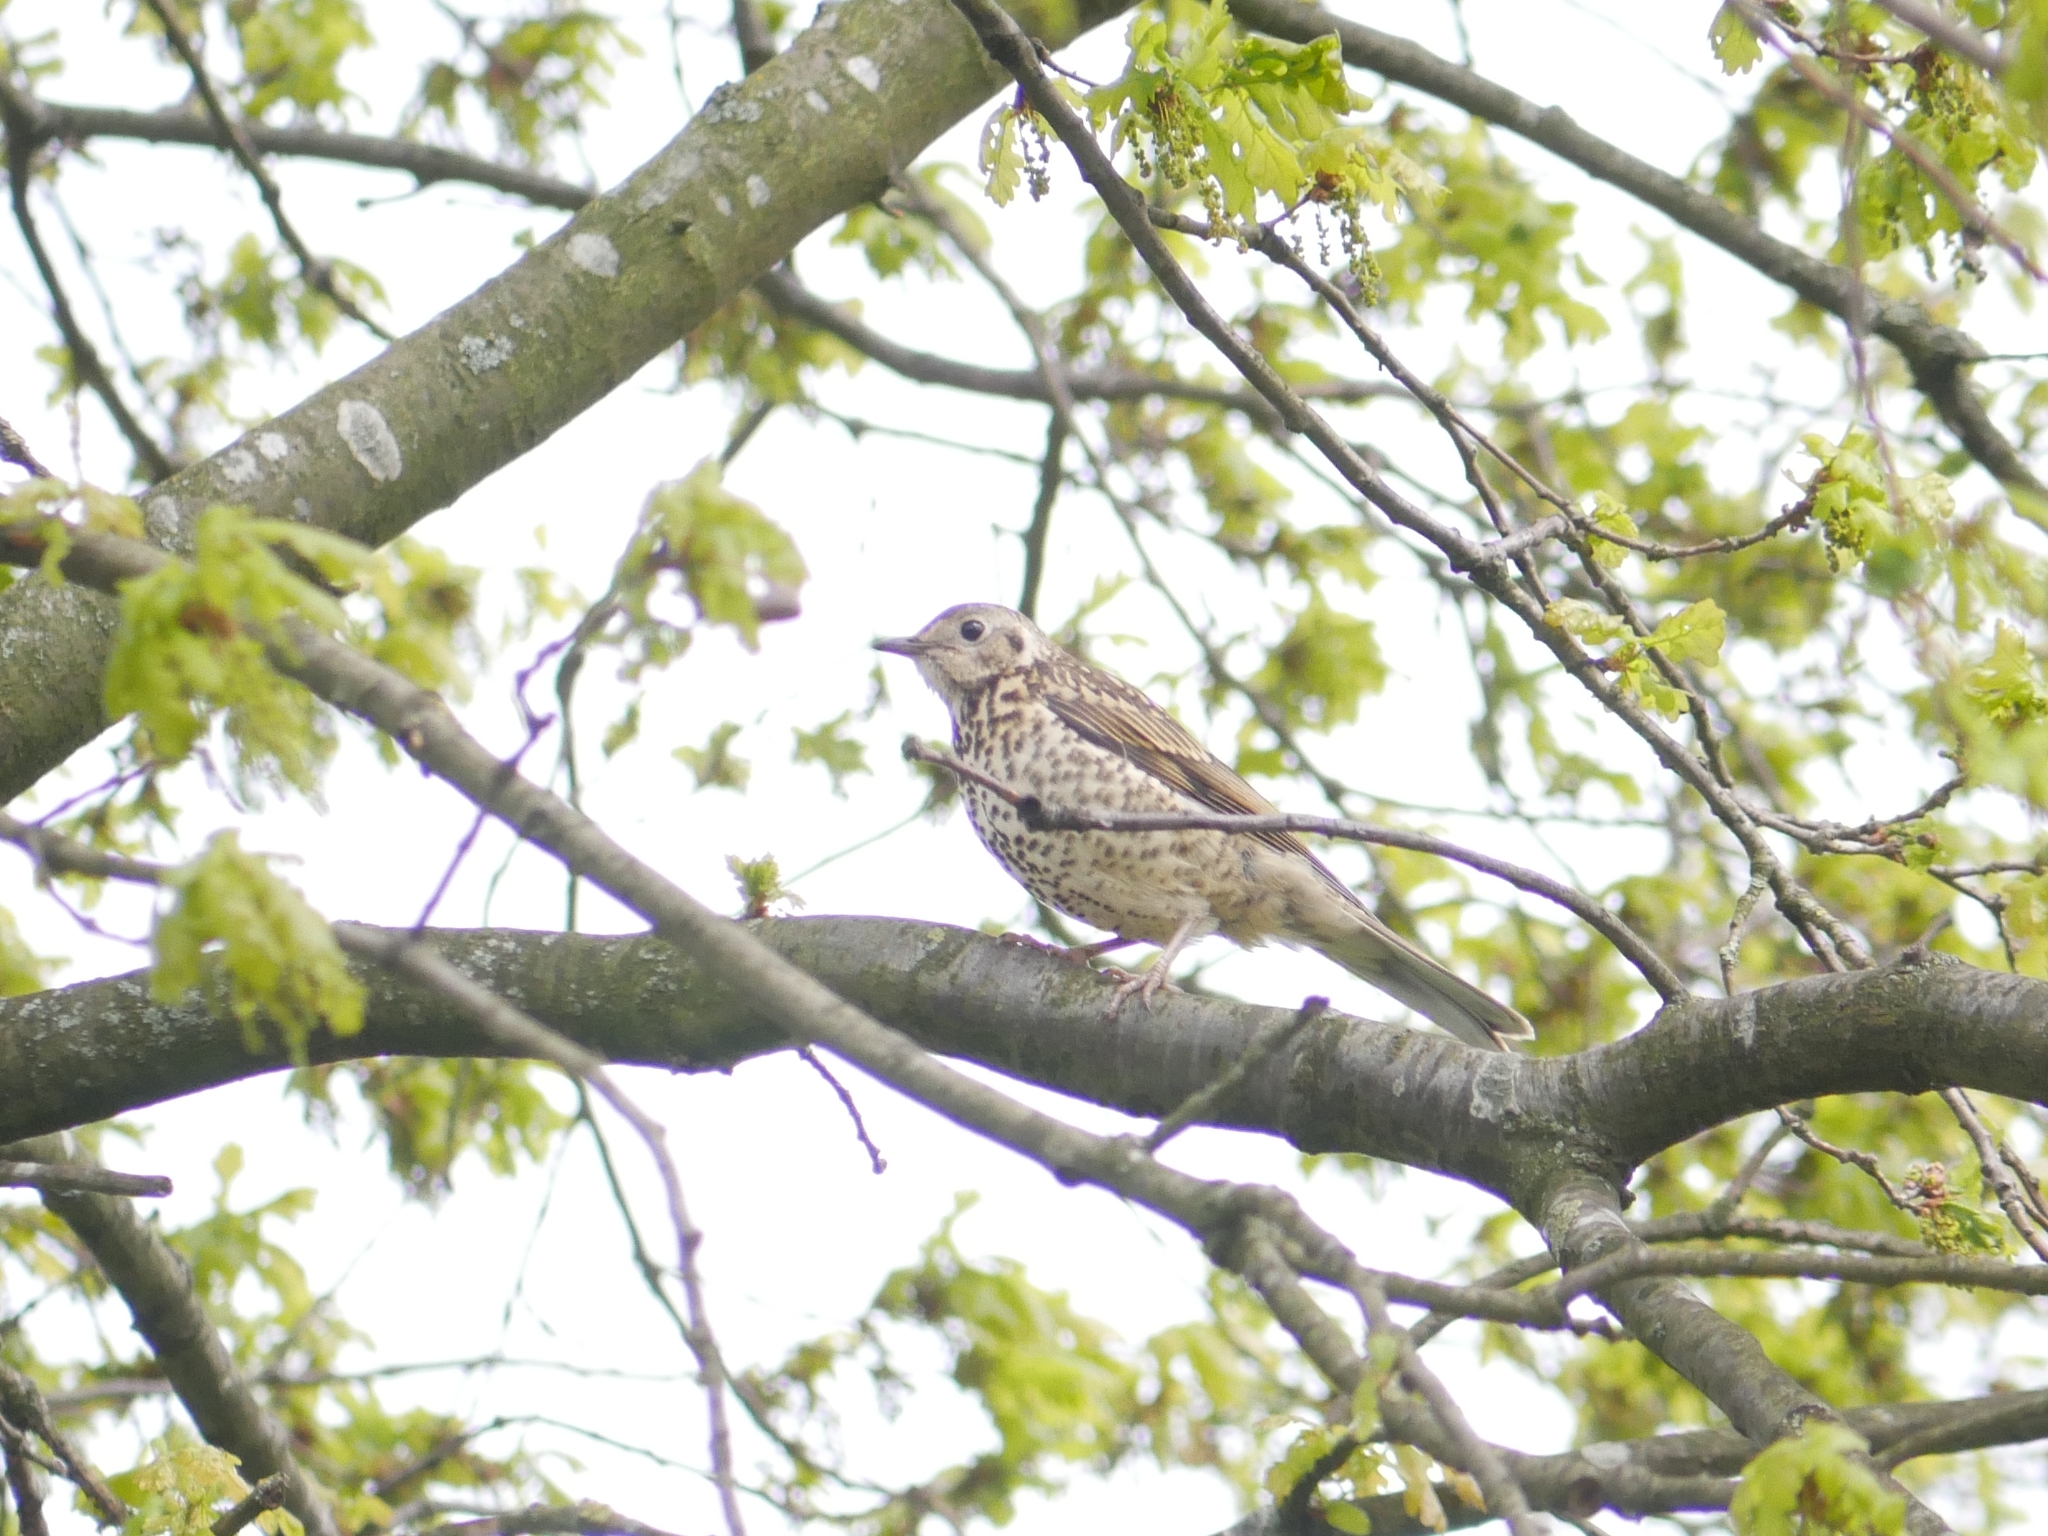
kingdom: Animalia
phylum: Chordata
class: Aves
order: Passeriformes
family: Turdidae
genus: Turdus
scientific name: Turdus viscivorus
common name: Mistle thrush
